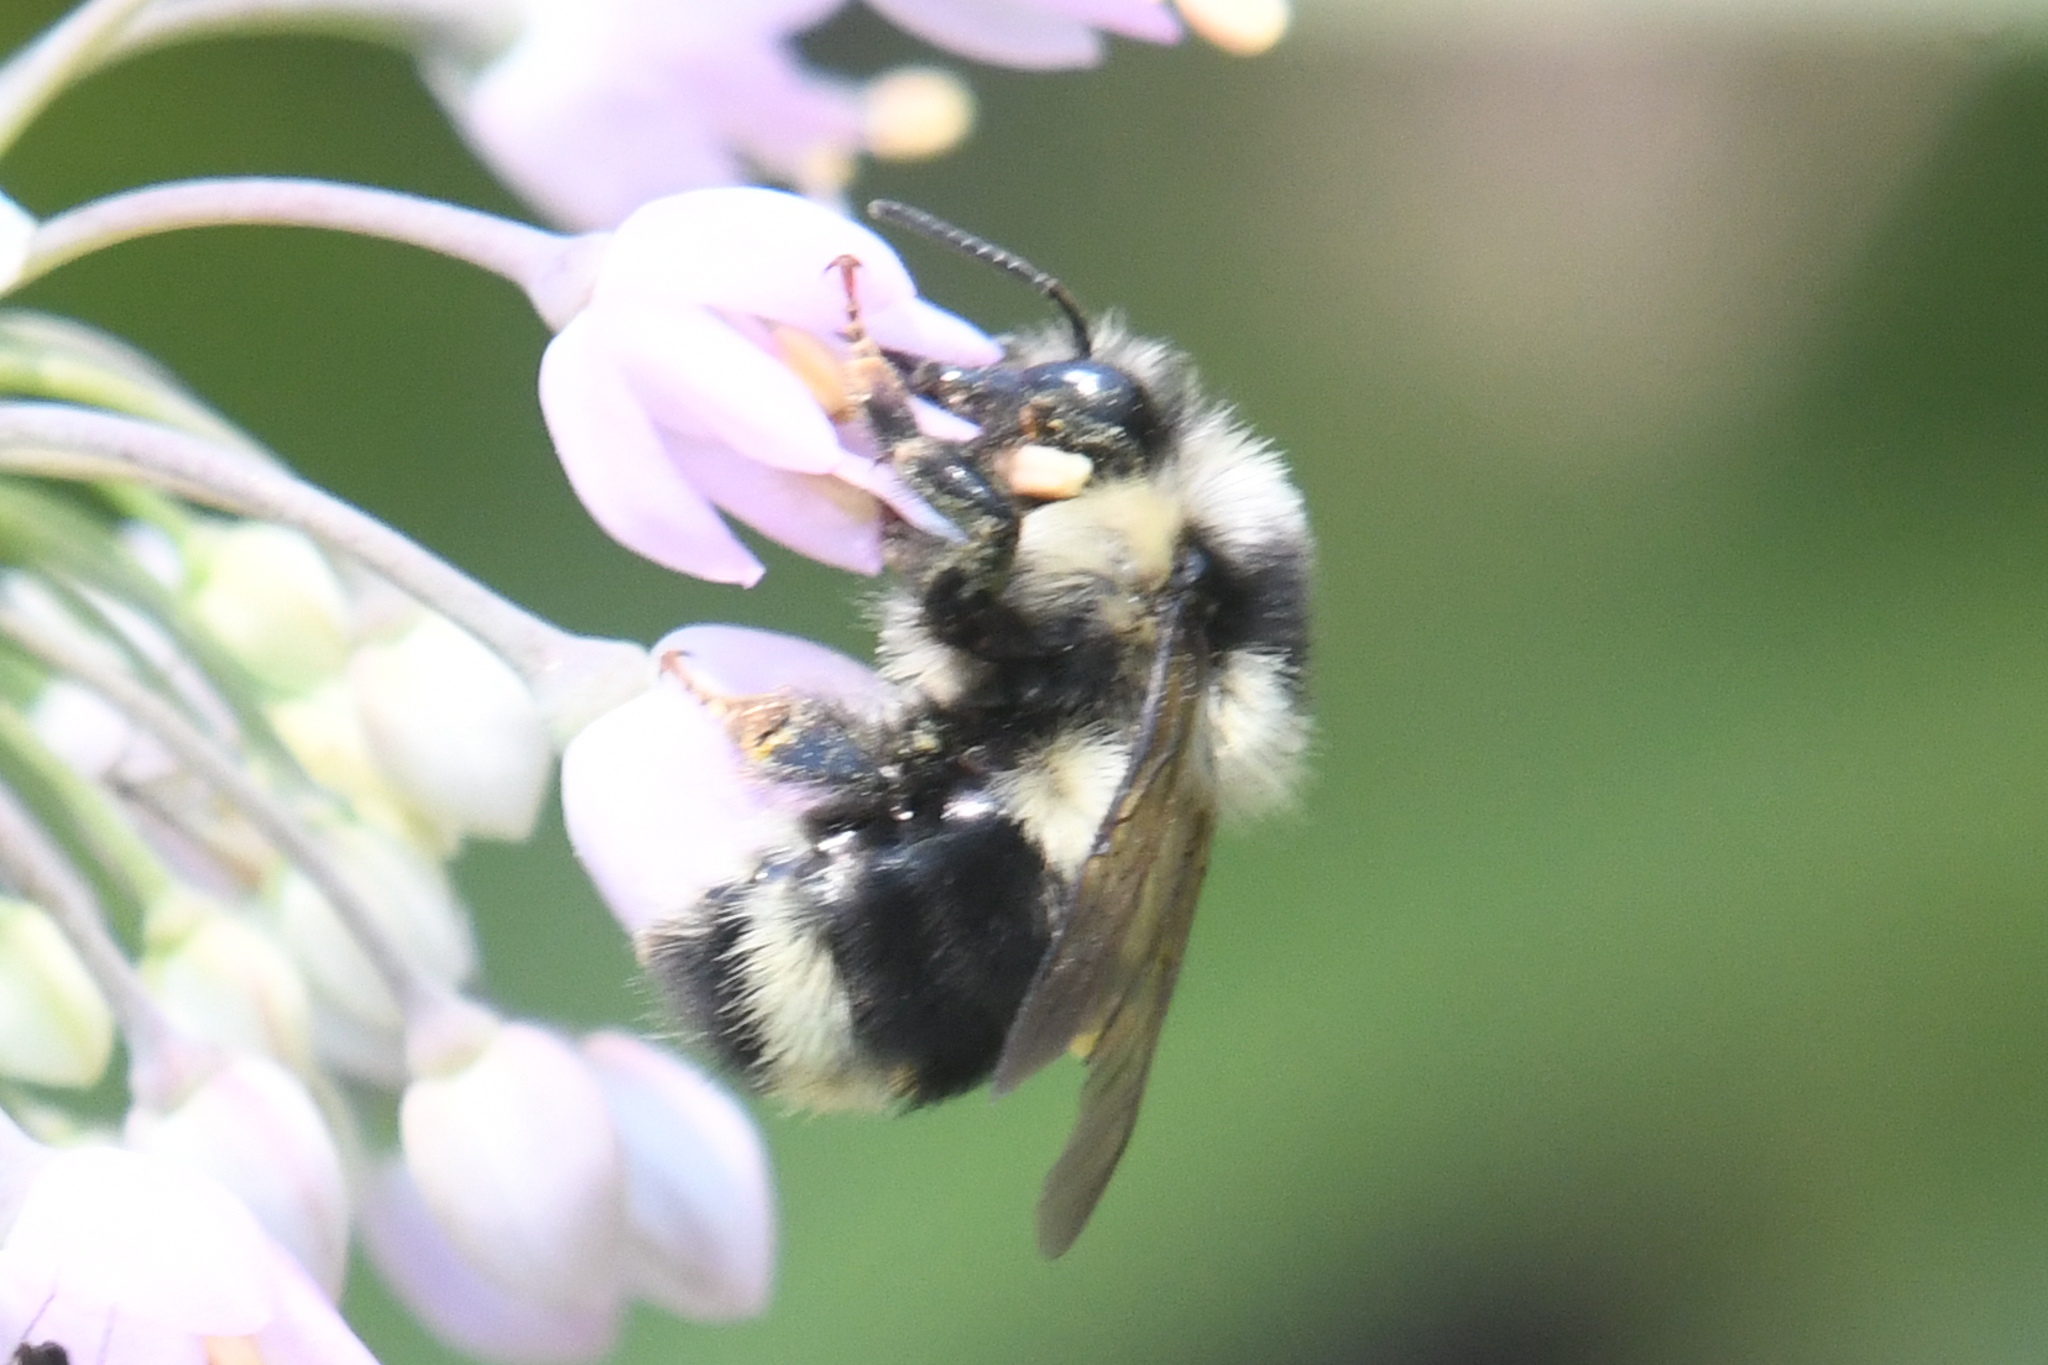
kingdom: Animalia
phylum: Arthropoda
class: Insecta
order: Hymenoptera
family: Apidae
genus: Bombus
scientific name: Bombus vancouverensis
